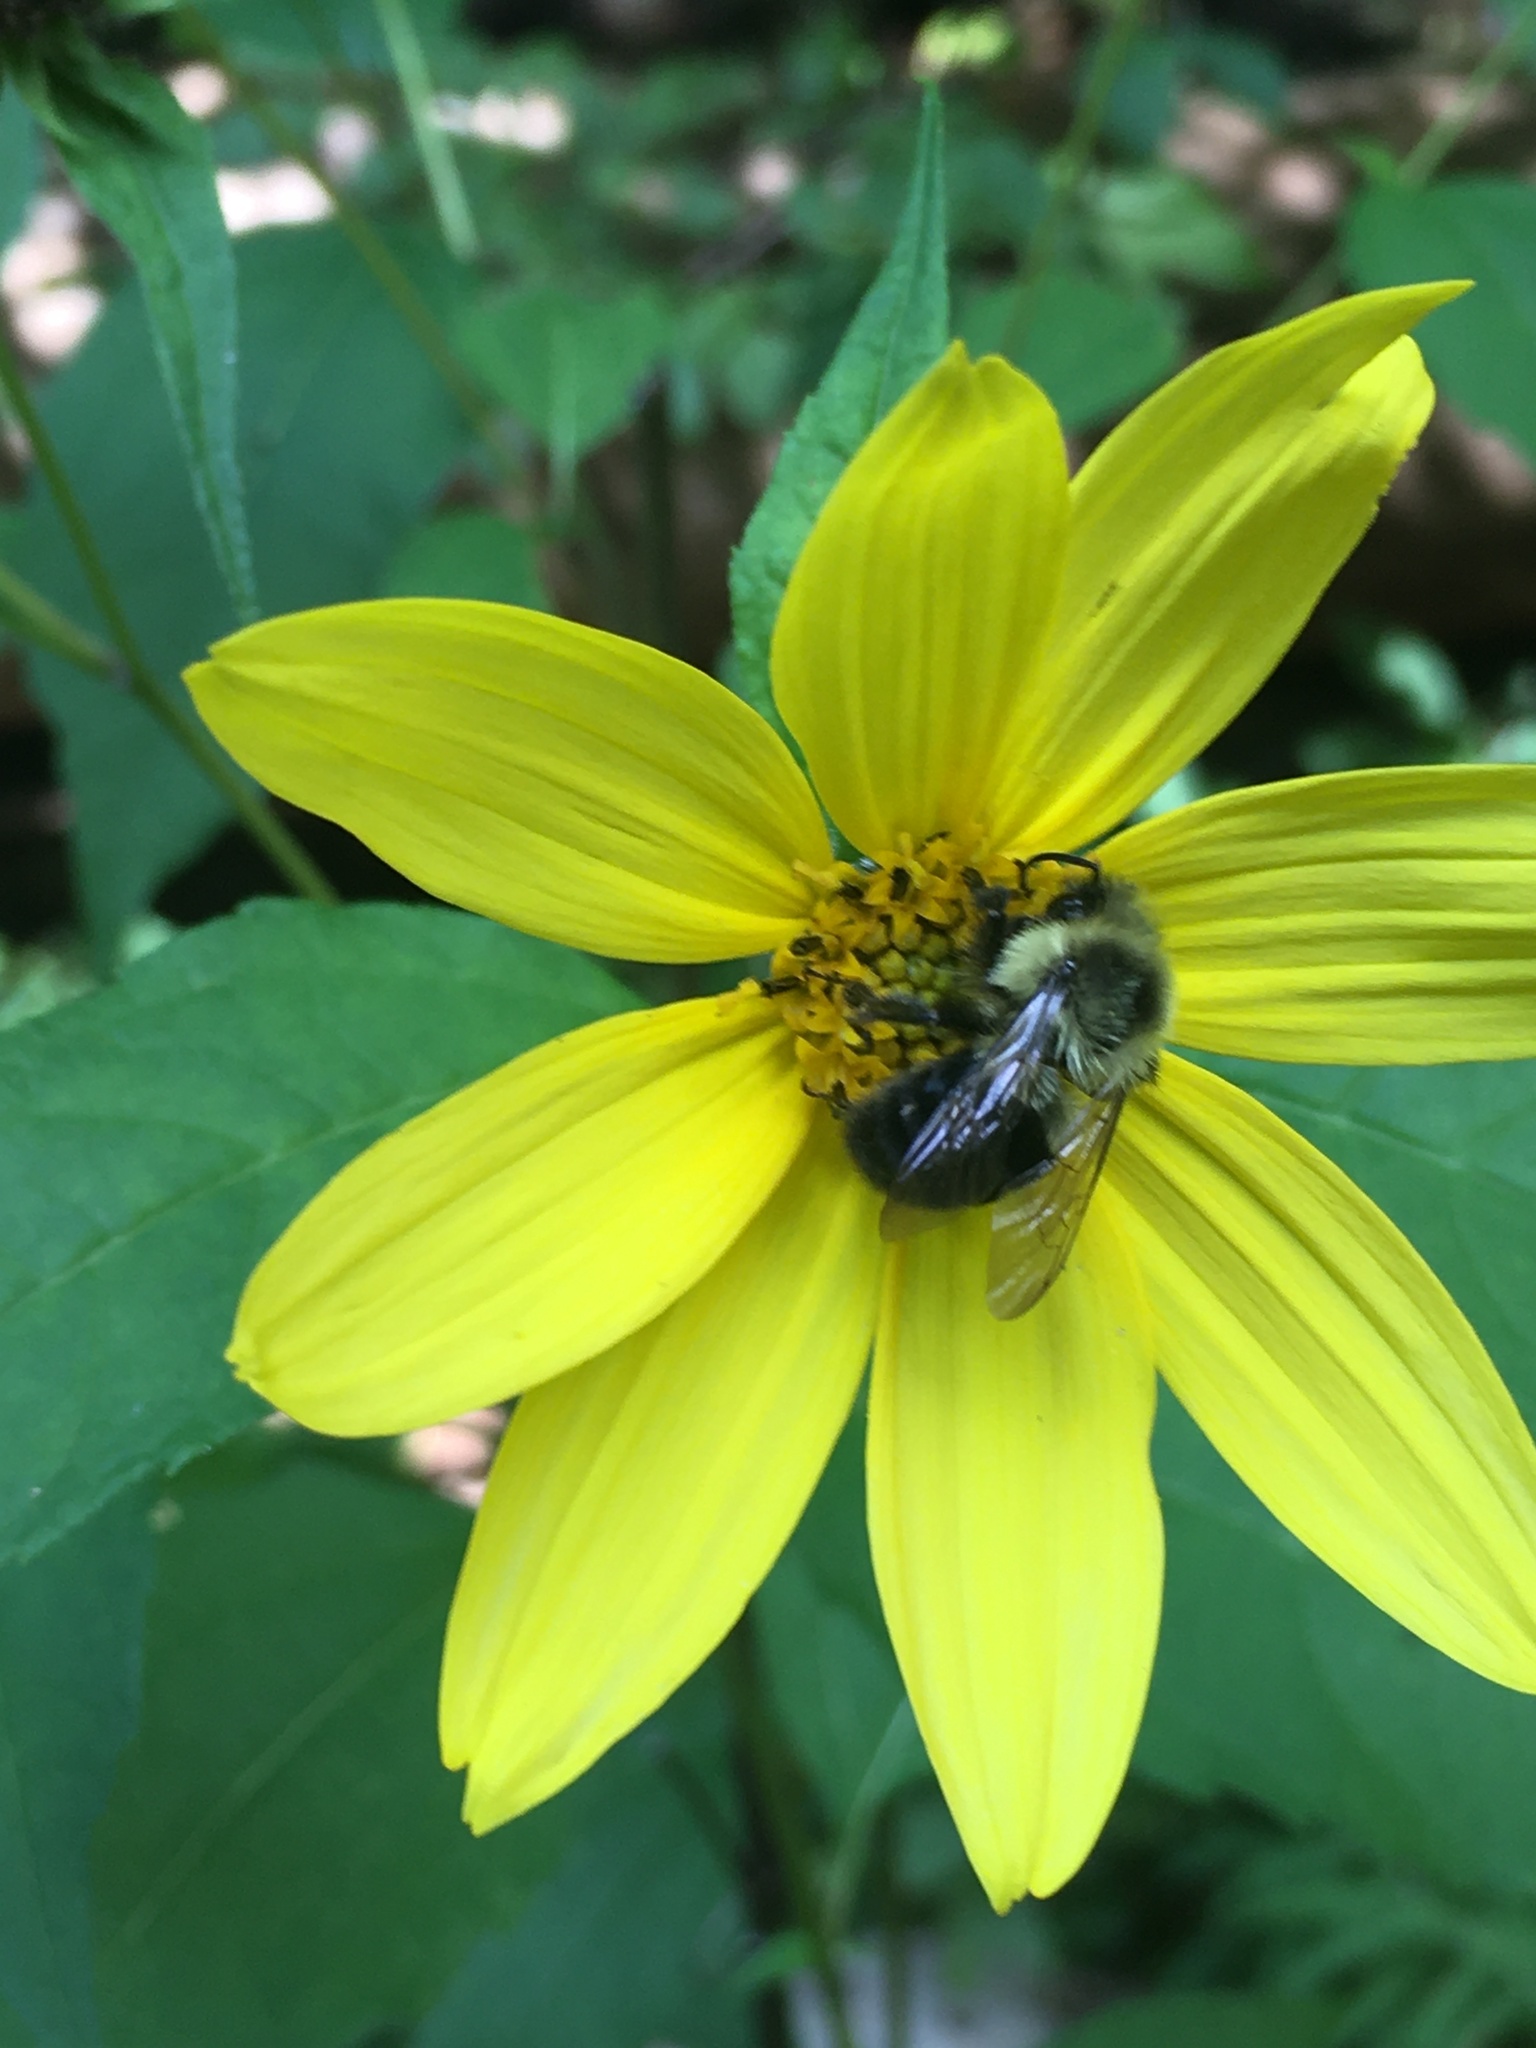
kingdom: Animalia
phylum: Arthropoda
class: Insecta
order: Hymenoptera
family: Apidae
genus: Bombus
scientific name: Bombus impatiens
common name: Common eastern bumble bee
